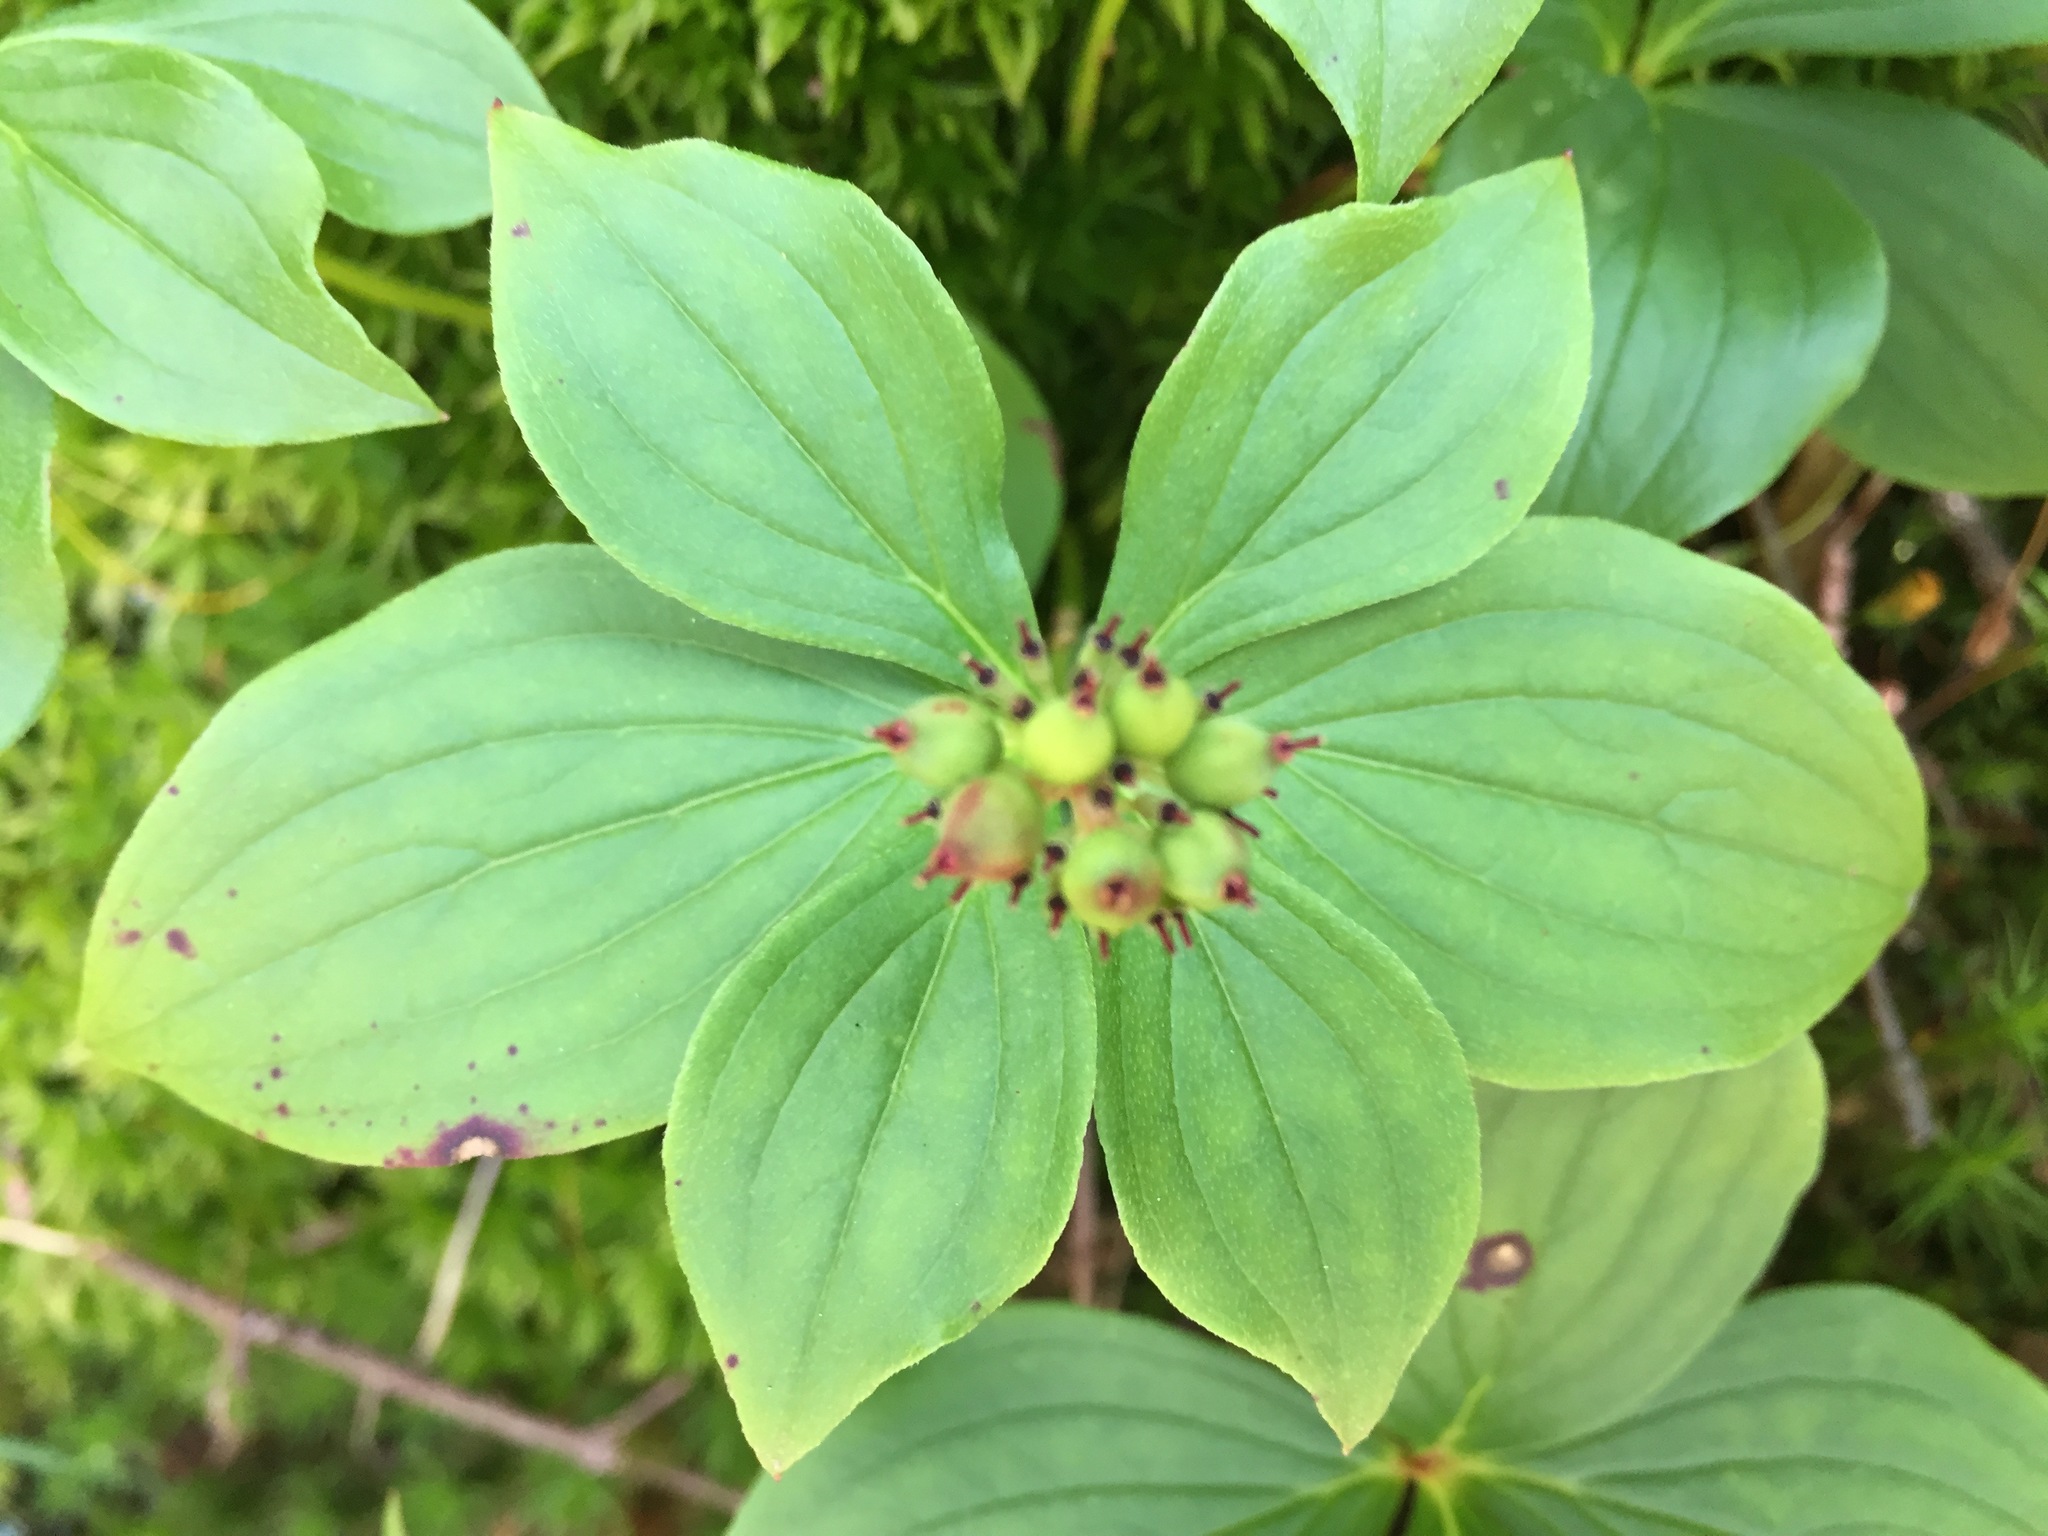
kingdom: Plantae
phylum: Tracheophyta
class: Magnoliopsida
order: Cornales
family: Cornaceae
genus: Cornus
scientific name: Cornus canadensis
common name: Creeping dogwood
